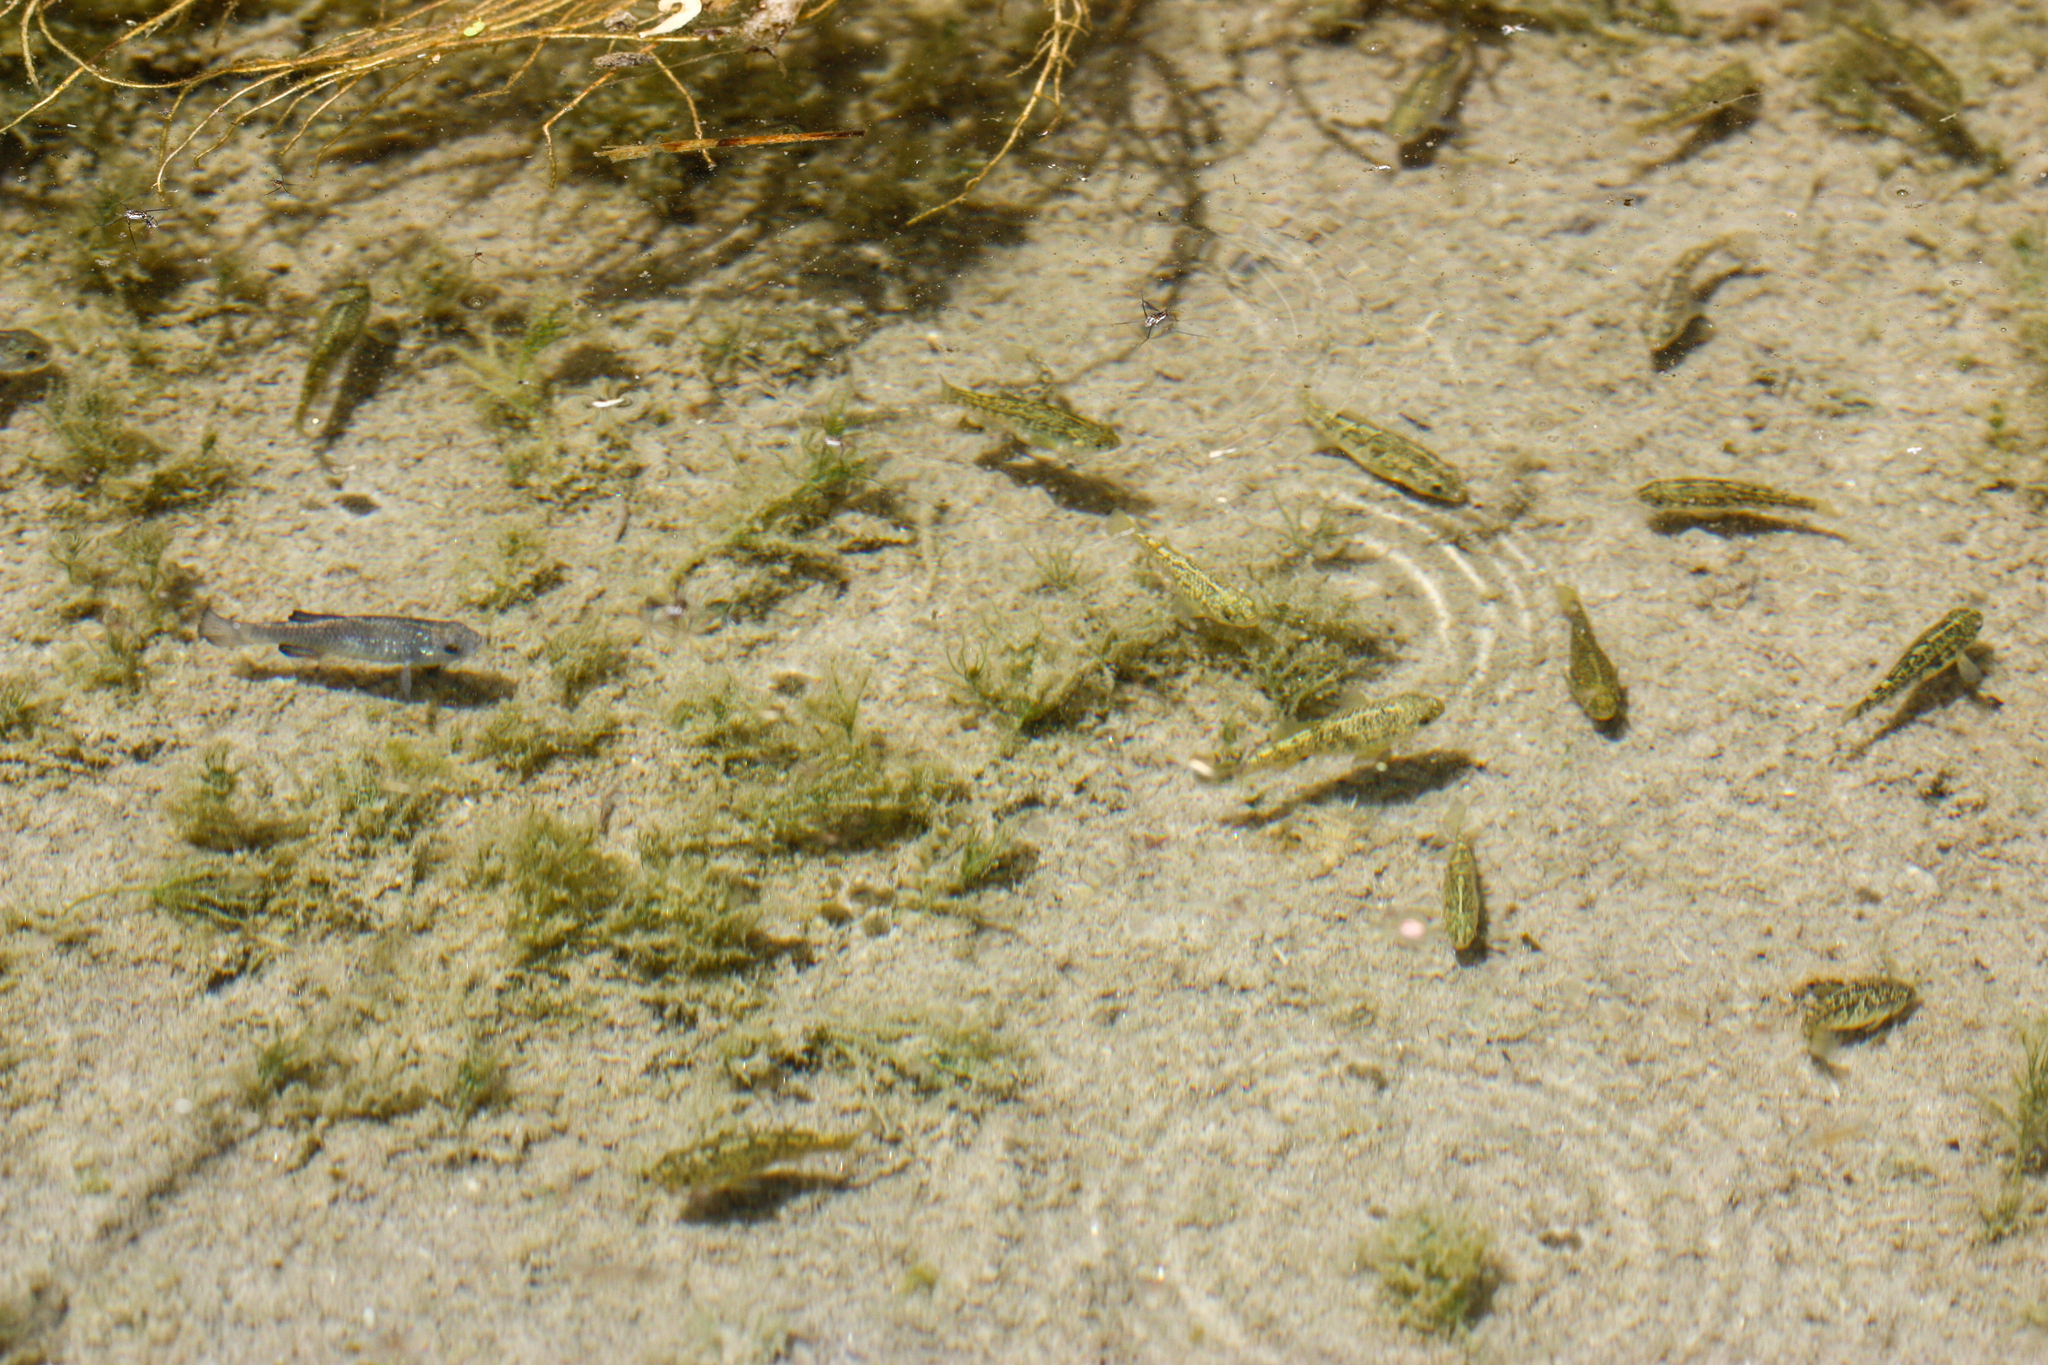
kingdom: Animalia
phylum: Chordata
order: Cyprinodontiformes
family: Cyprinodontidae
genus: Cyprinodon
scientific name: Cyprinodon eremus
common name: Sonoyta pupfish
